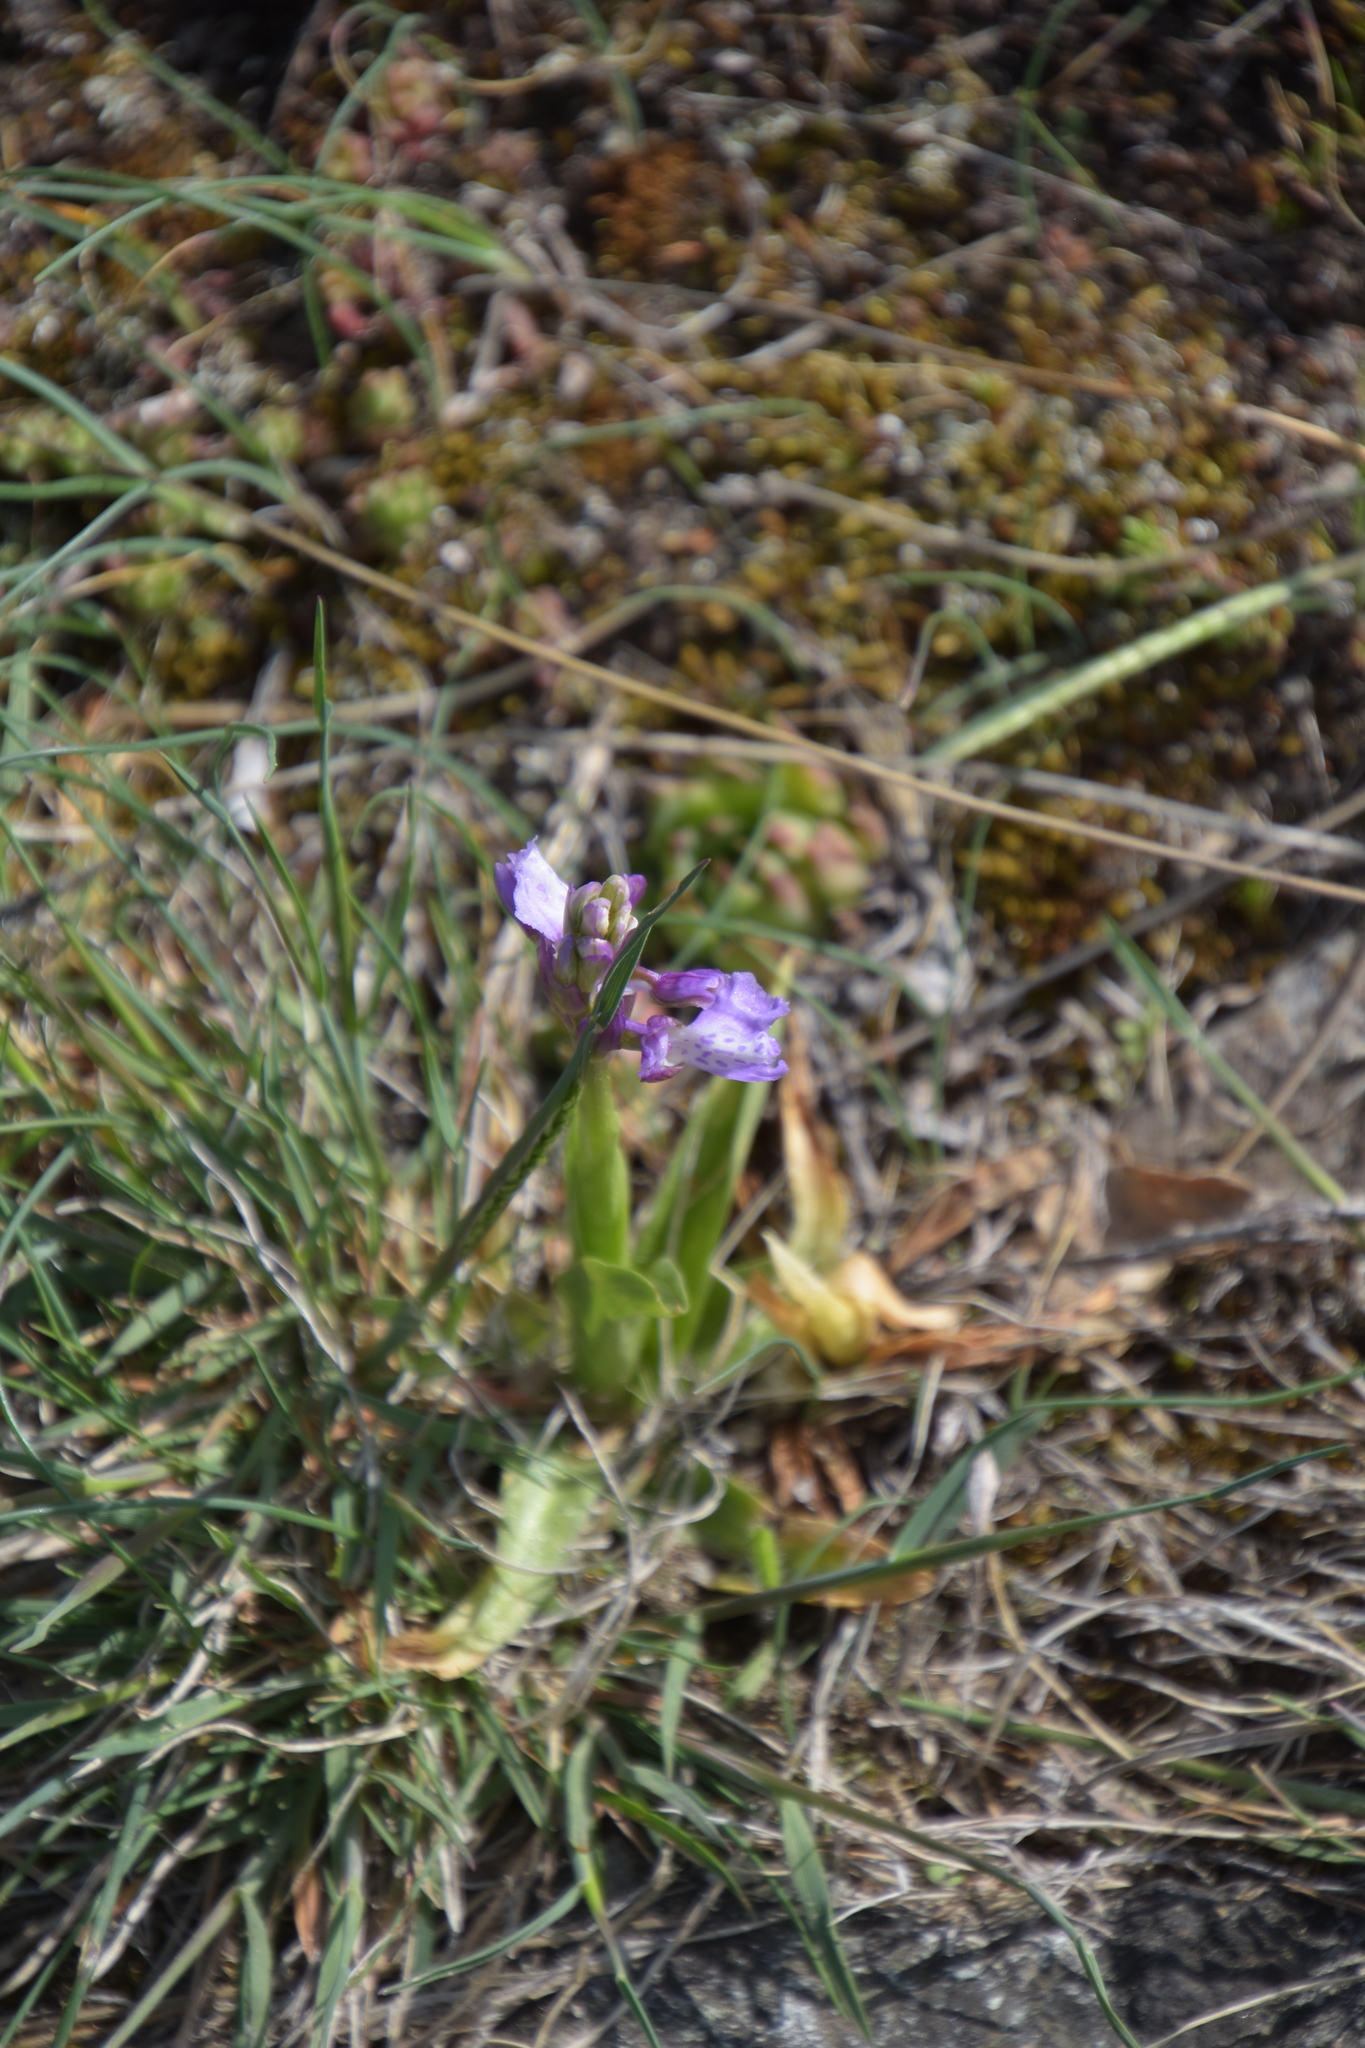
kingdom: Plantae
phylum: Tracheophyta
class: Liliopsida
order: Asparagales
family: Orchidaceae
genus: Anacamptis
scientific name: Anacamptis morio
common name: Green-winged orchid
